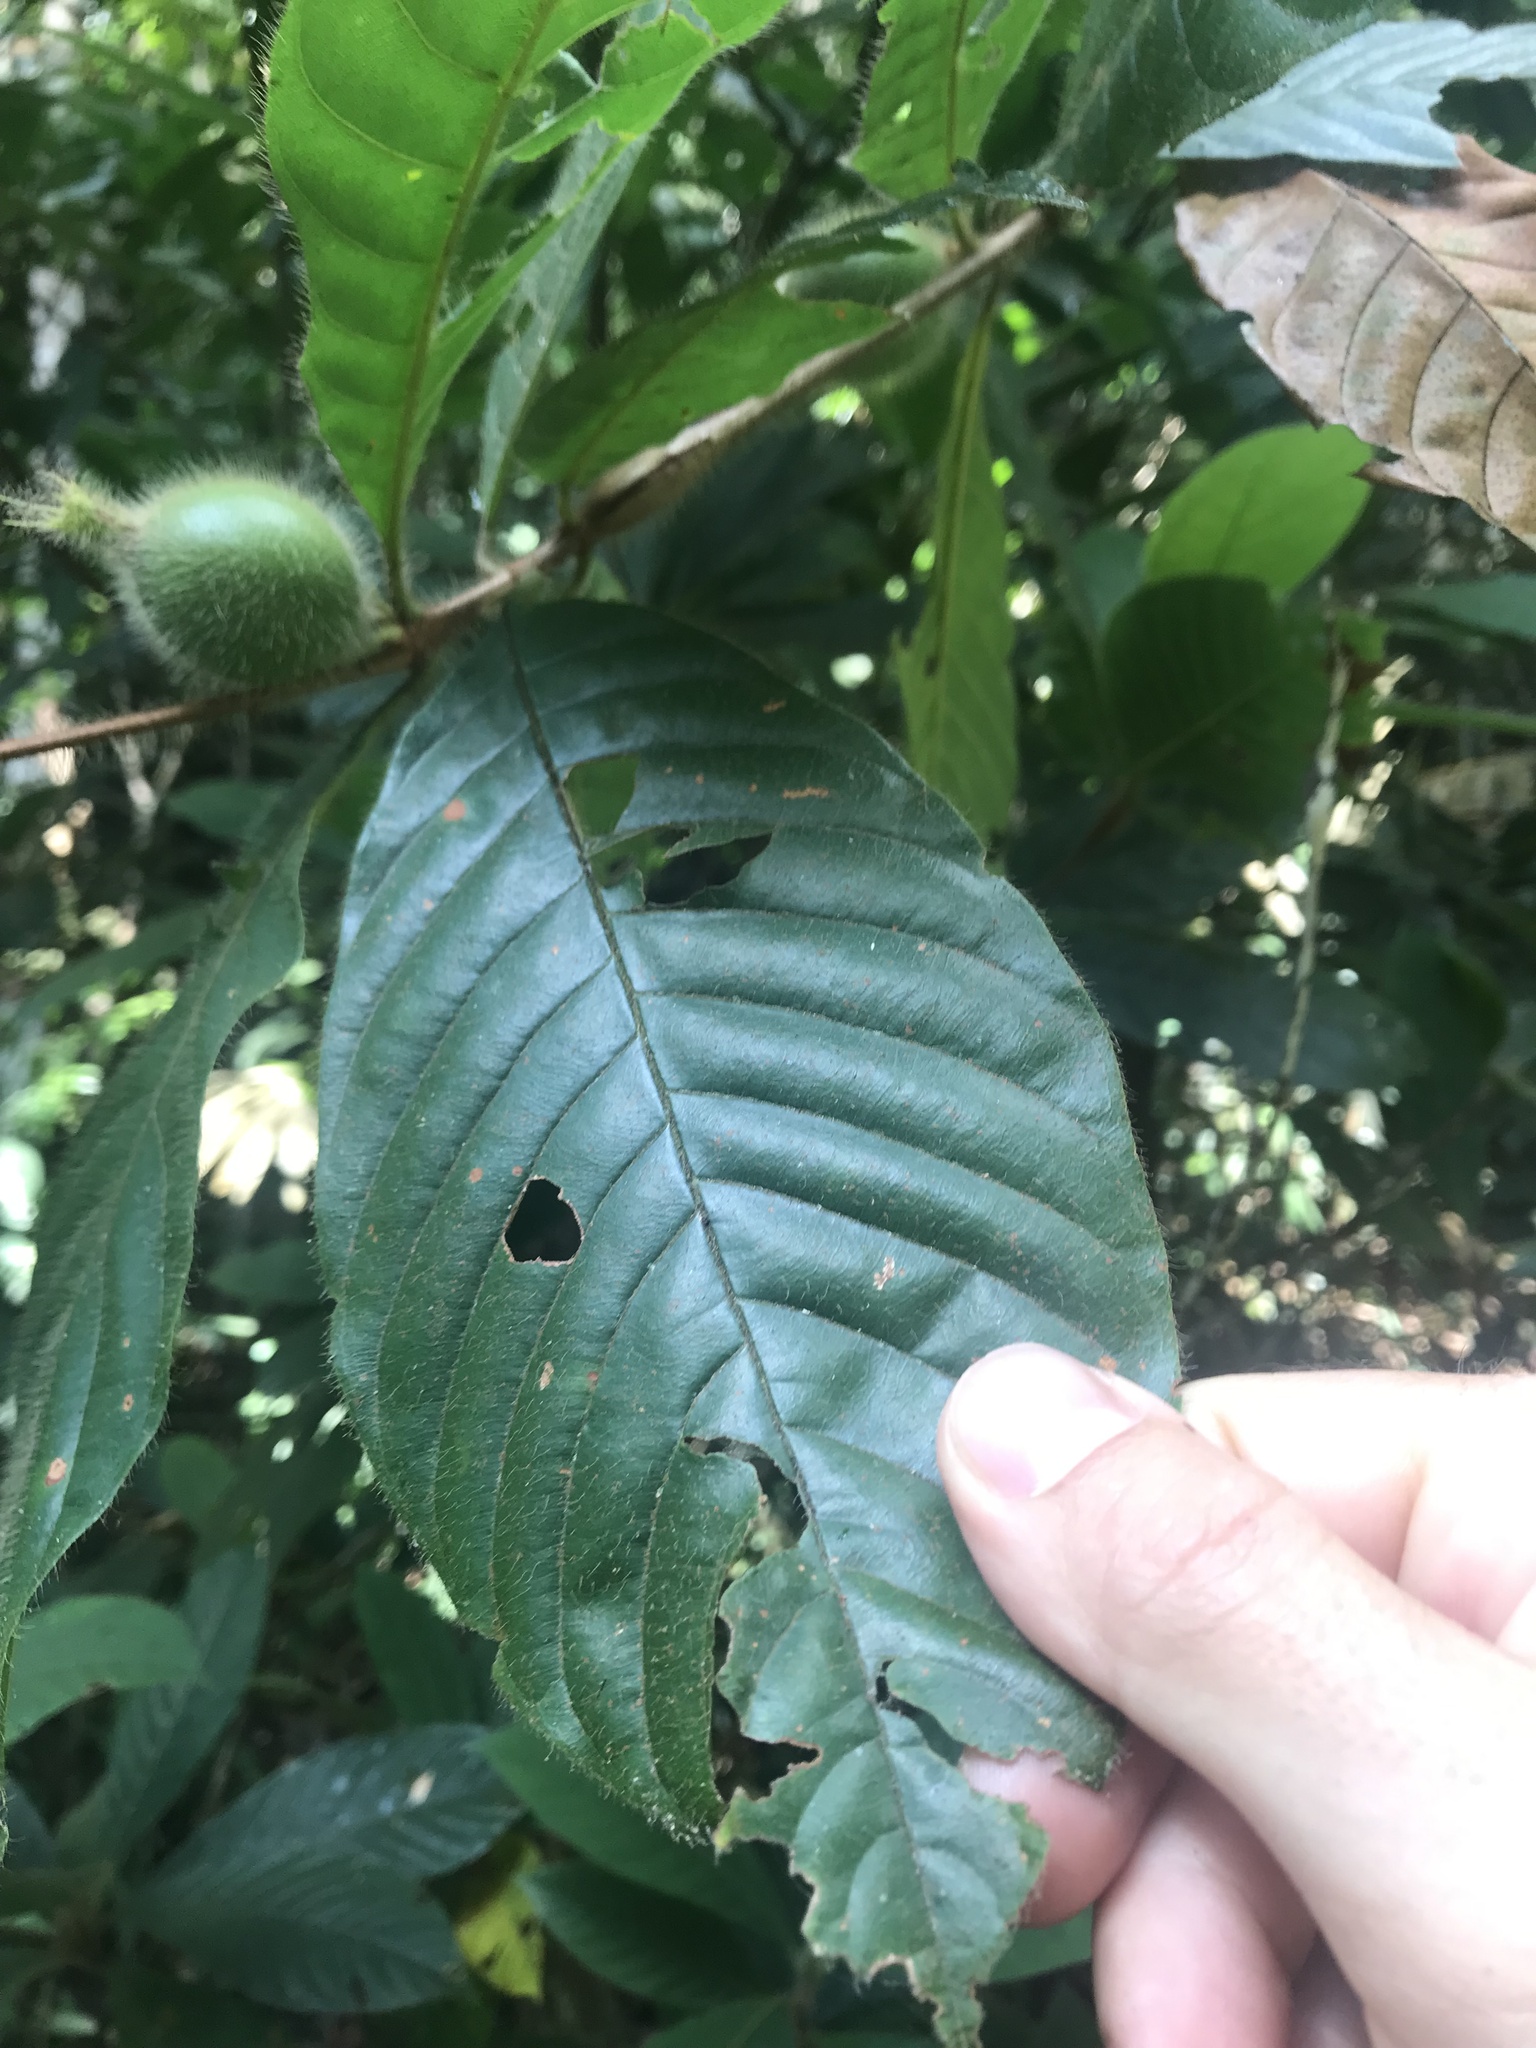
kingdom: Plantae
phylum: Tracheophyta
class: Magnoliopsida
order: Gentianales
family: Rubiaceae
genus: Duroia
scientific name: Duroia hirsuta
